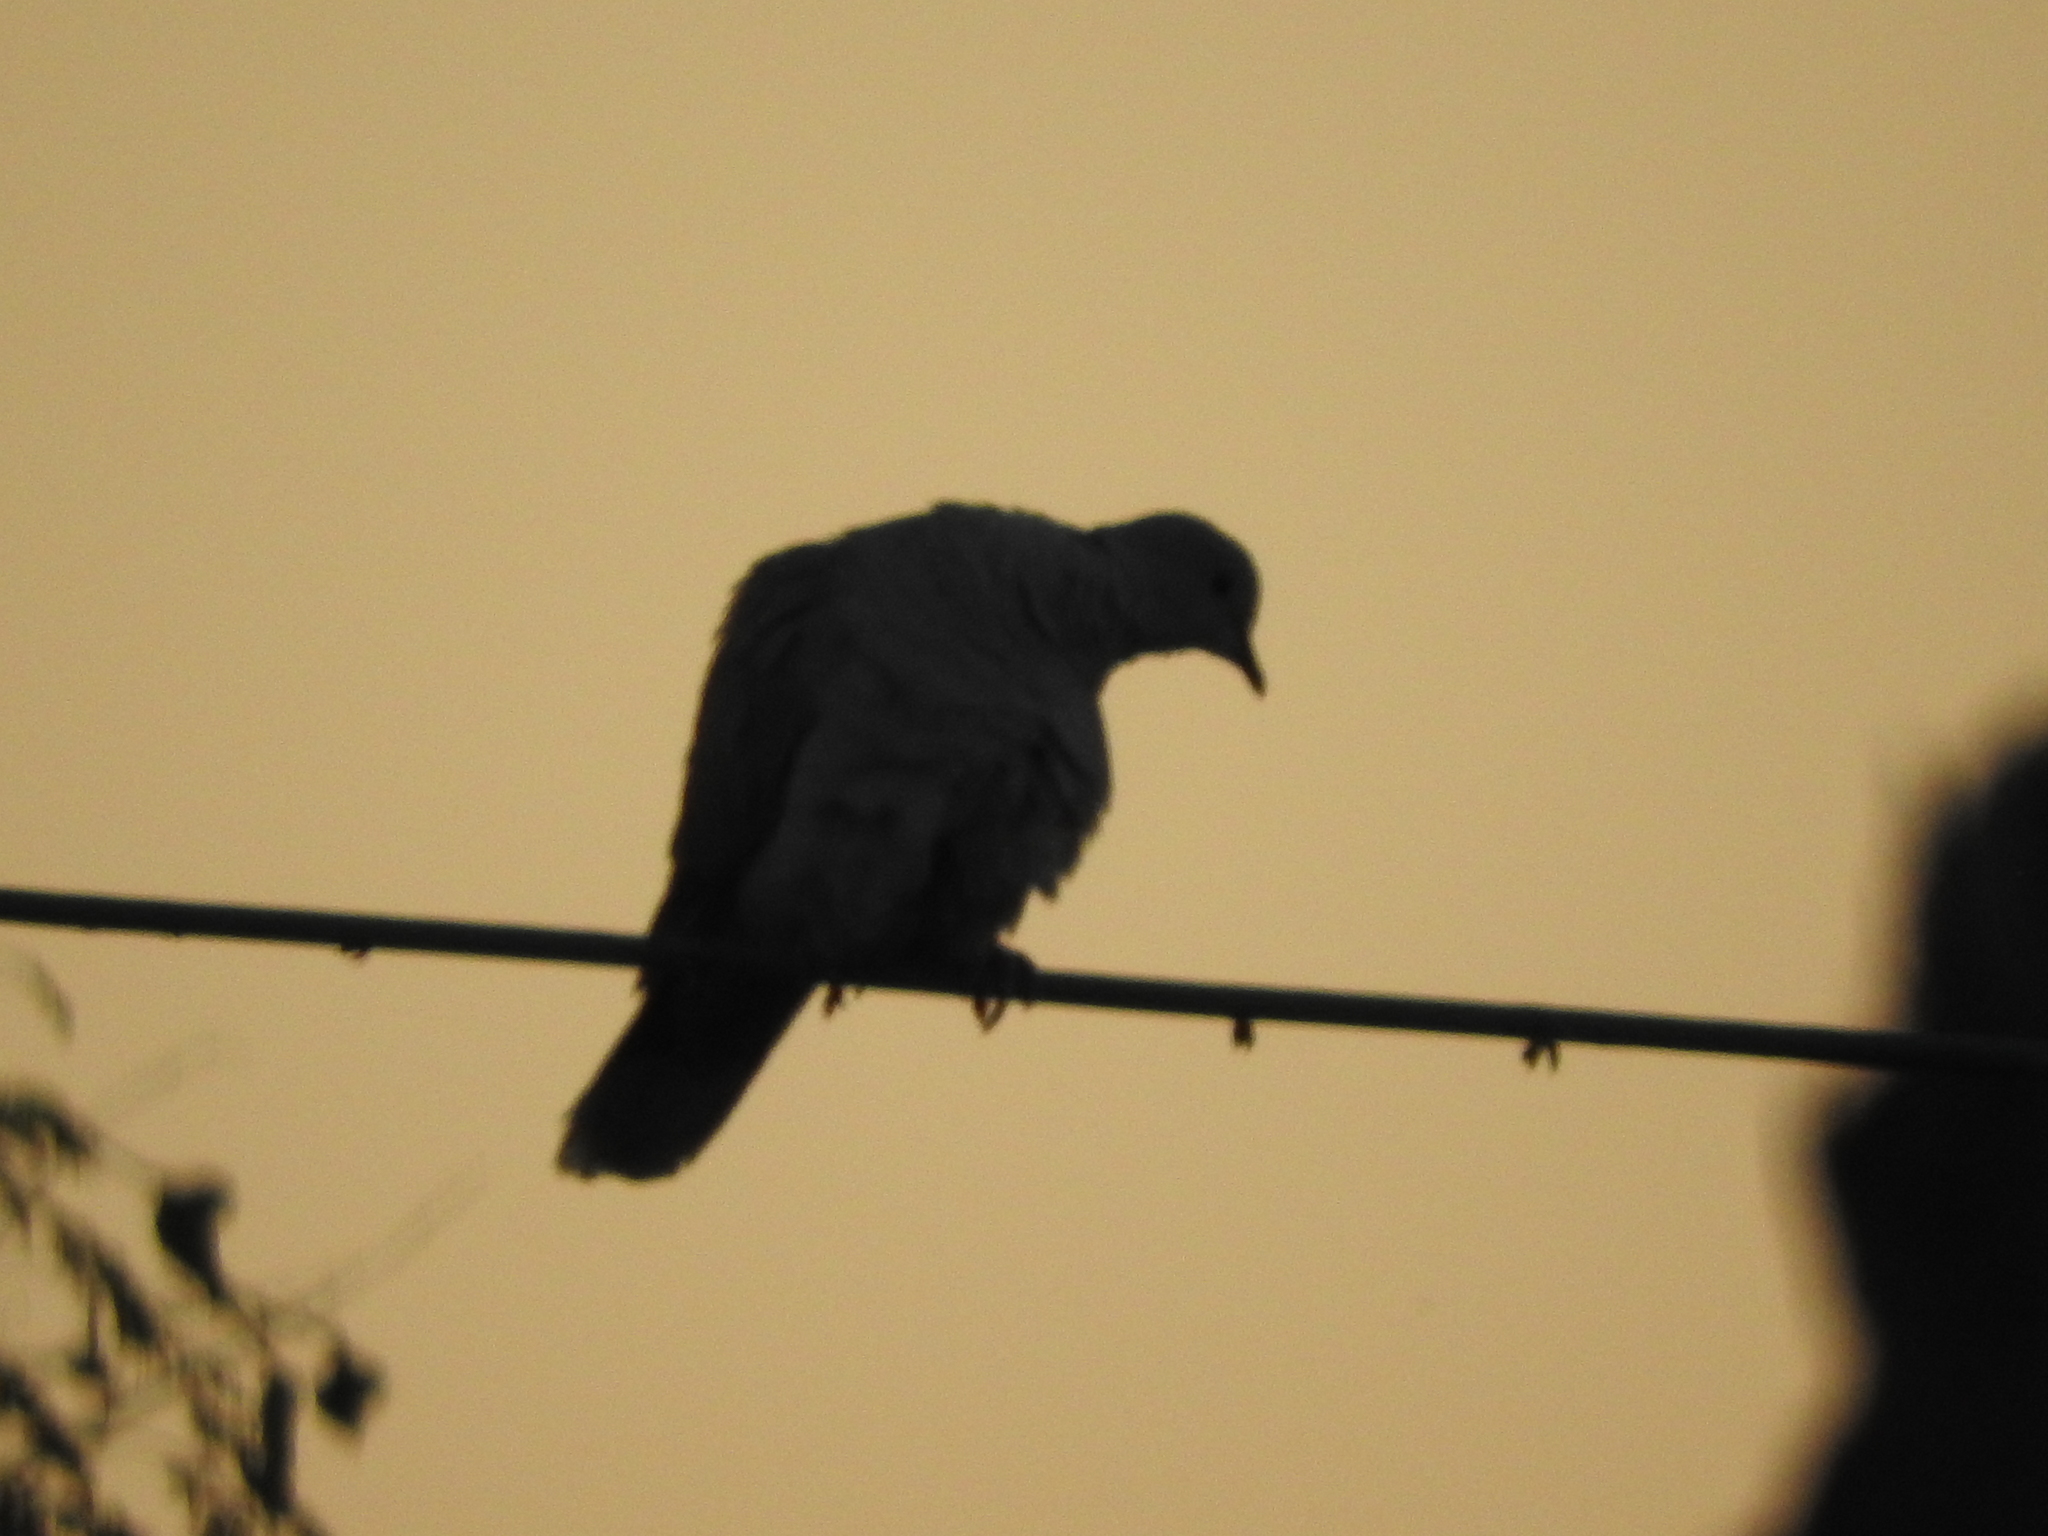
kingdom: Animalia
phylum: Chordata
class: Aves
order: Columbiformes
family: Columbidae
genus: Streptopelia
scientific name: Streptopelia decaocto
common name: Eurasian collared dove
